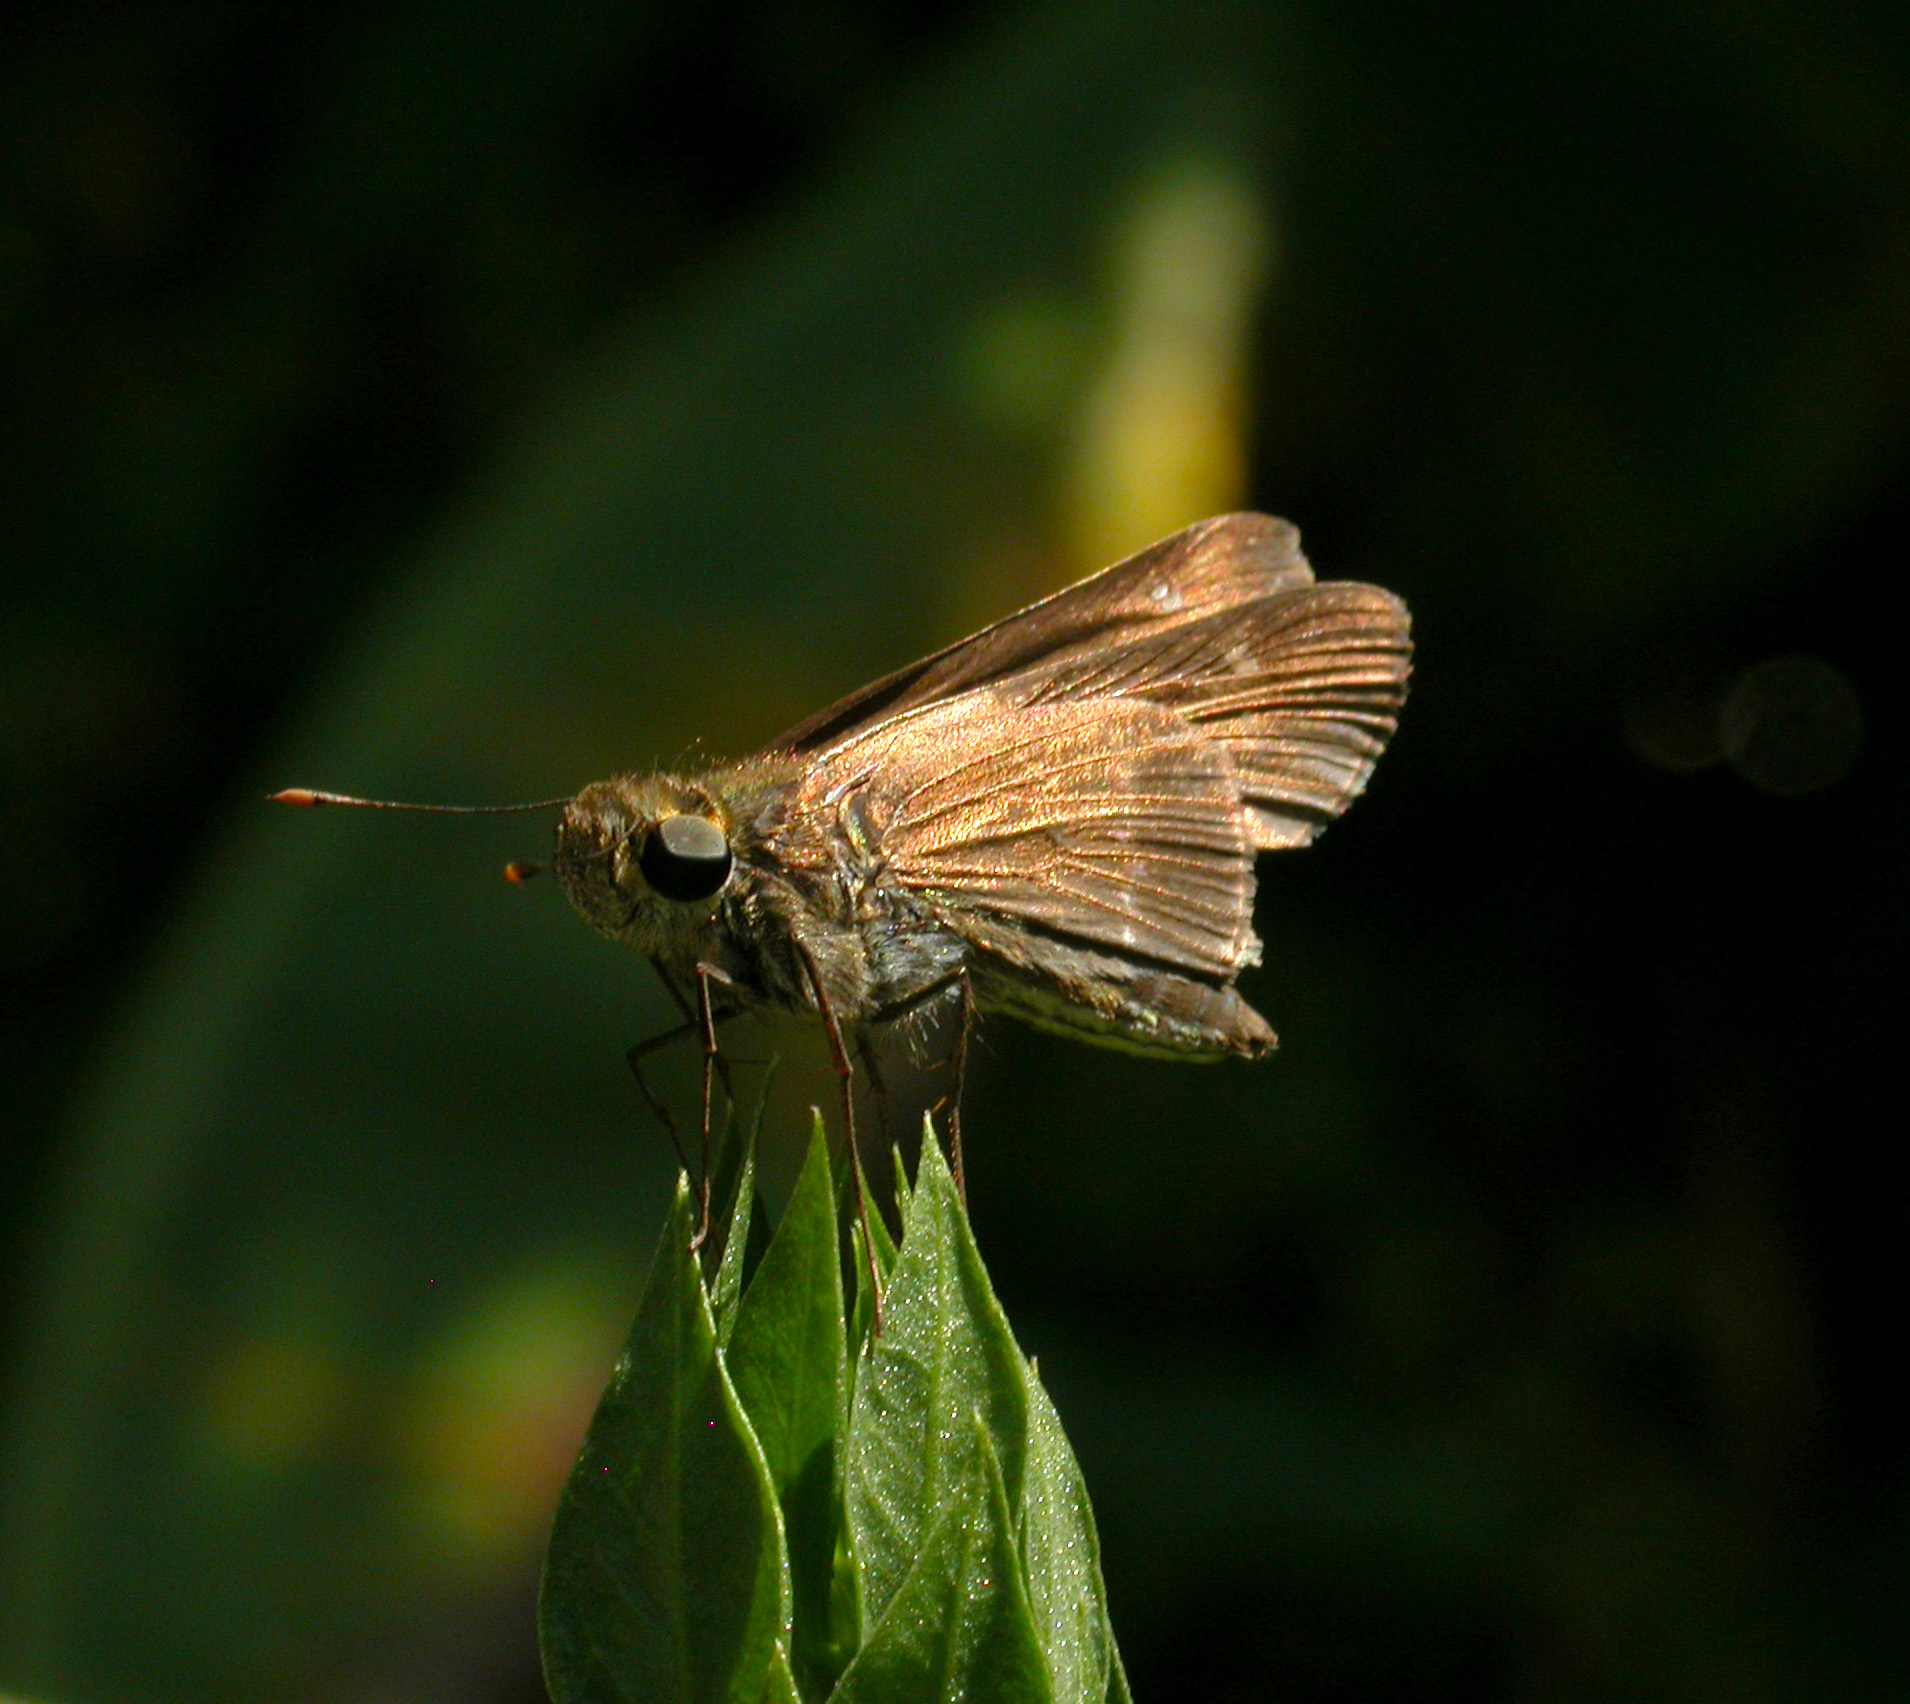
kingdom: Animalia
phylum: Arthropoda
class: Insecta
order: Lepidoptera
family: Hesperiidae
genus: Turesis
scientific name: Turesis lucas
